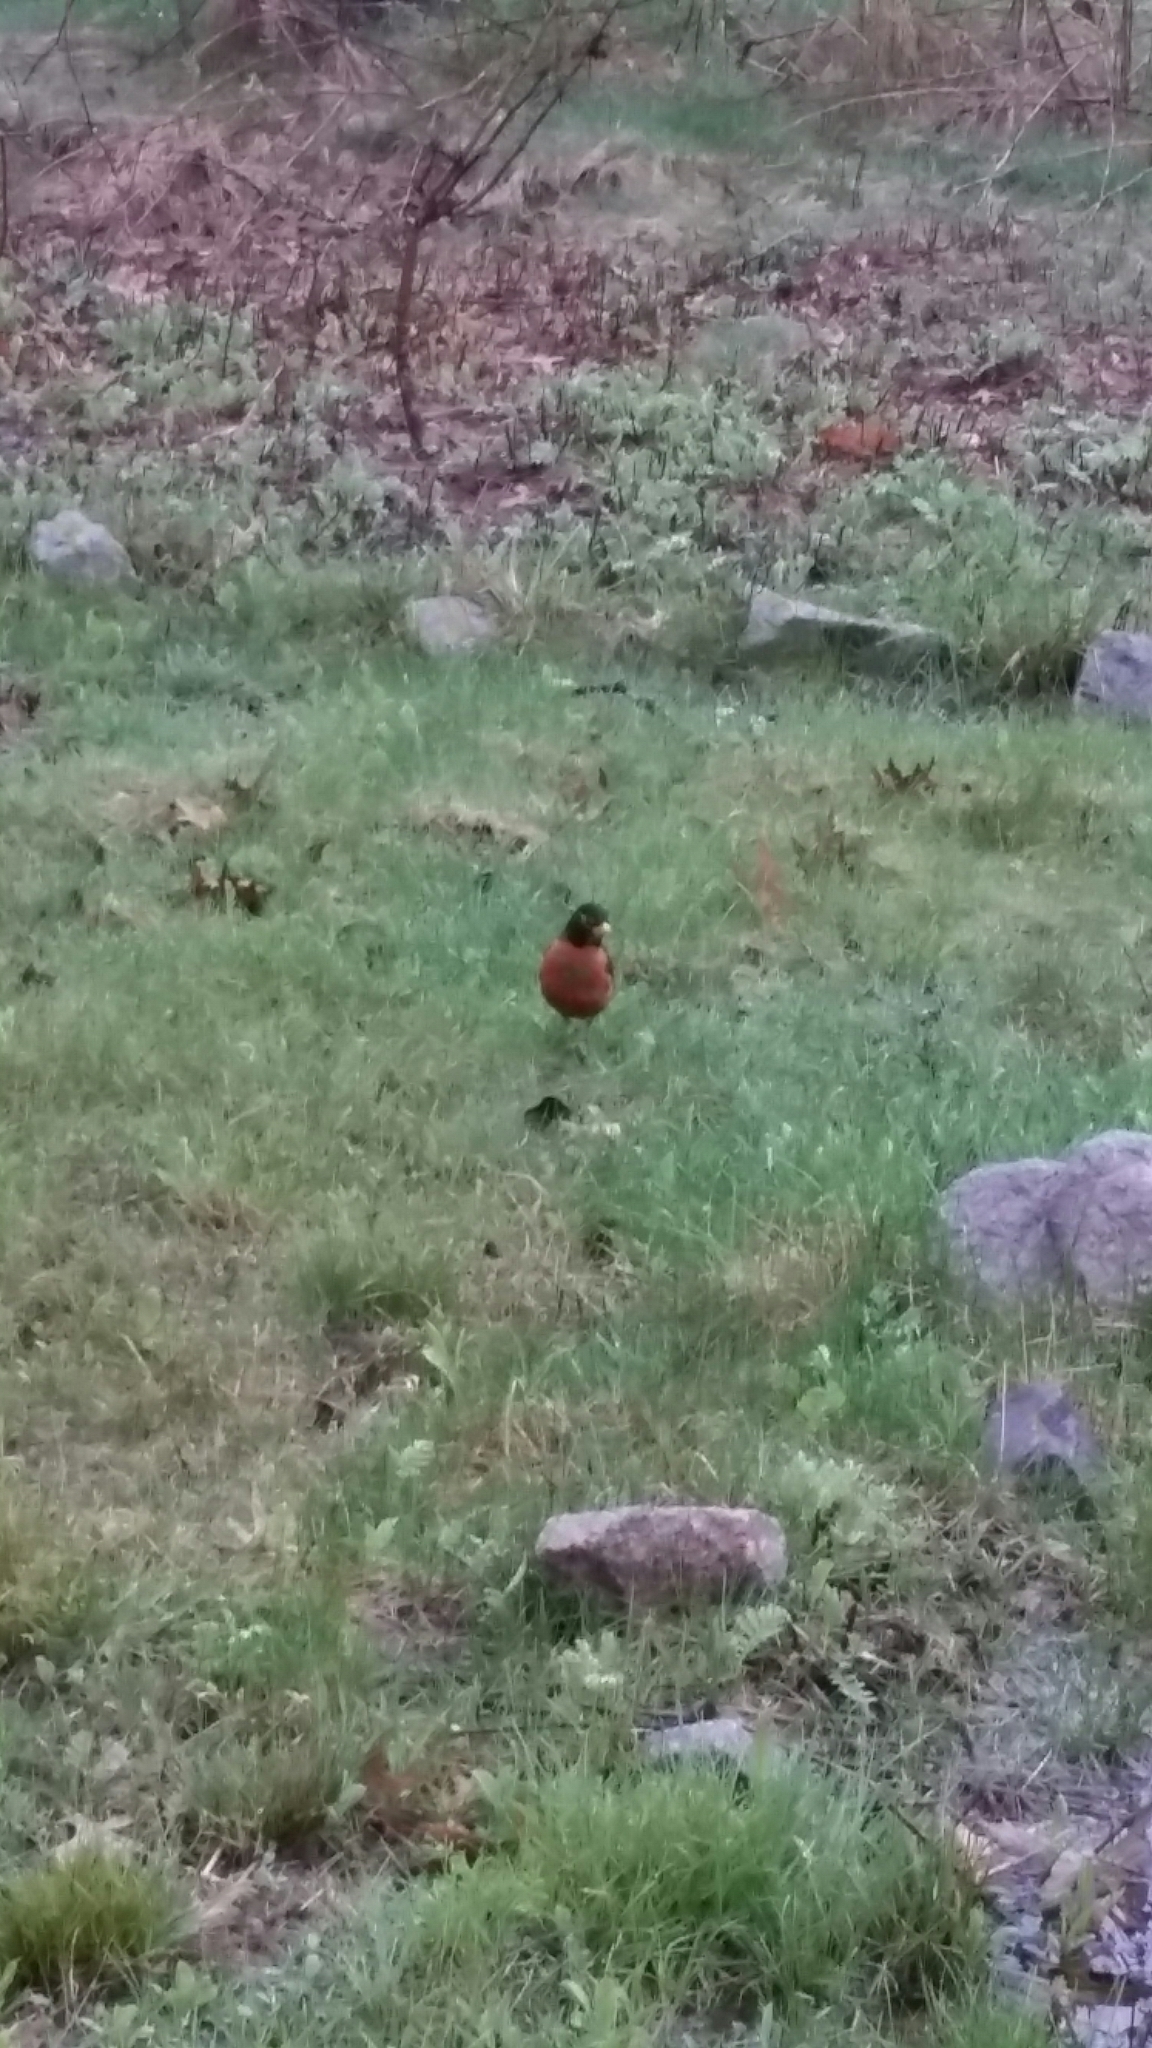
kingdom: Animalia
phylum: Chordata
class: Aves
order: Passeriformes
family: Turdidae
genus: Turdus
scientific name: Turdus migratorius
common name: American robin
